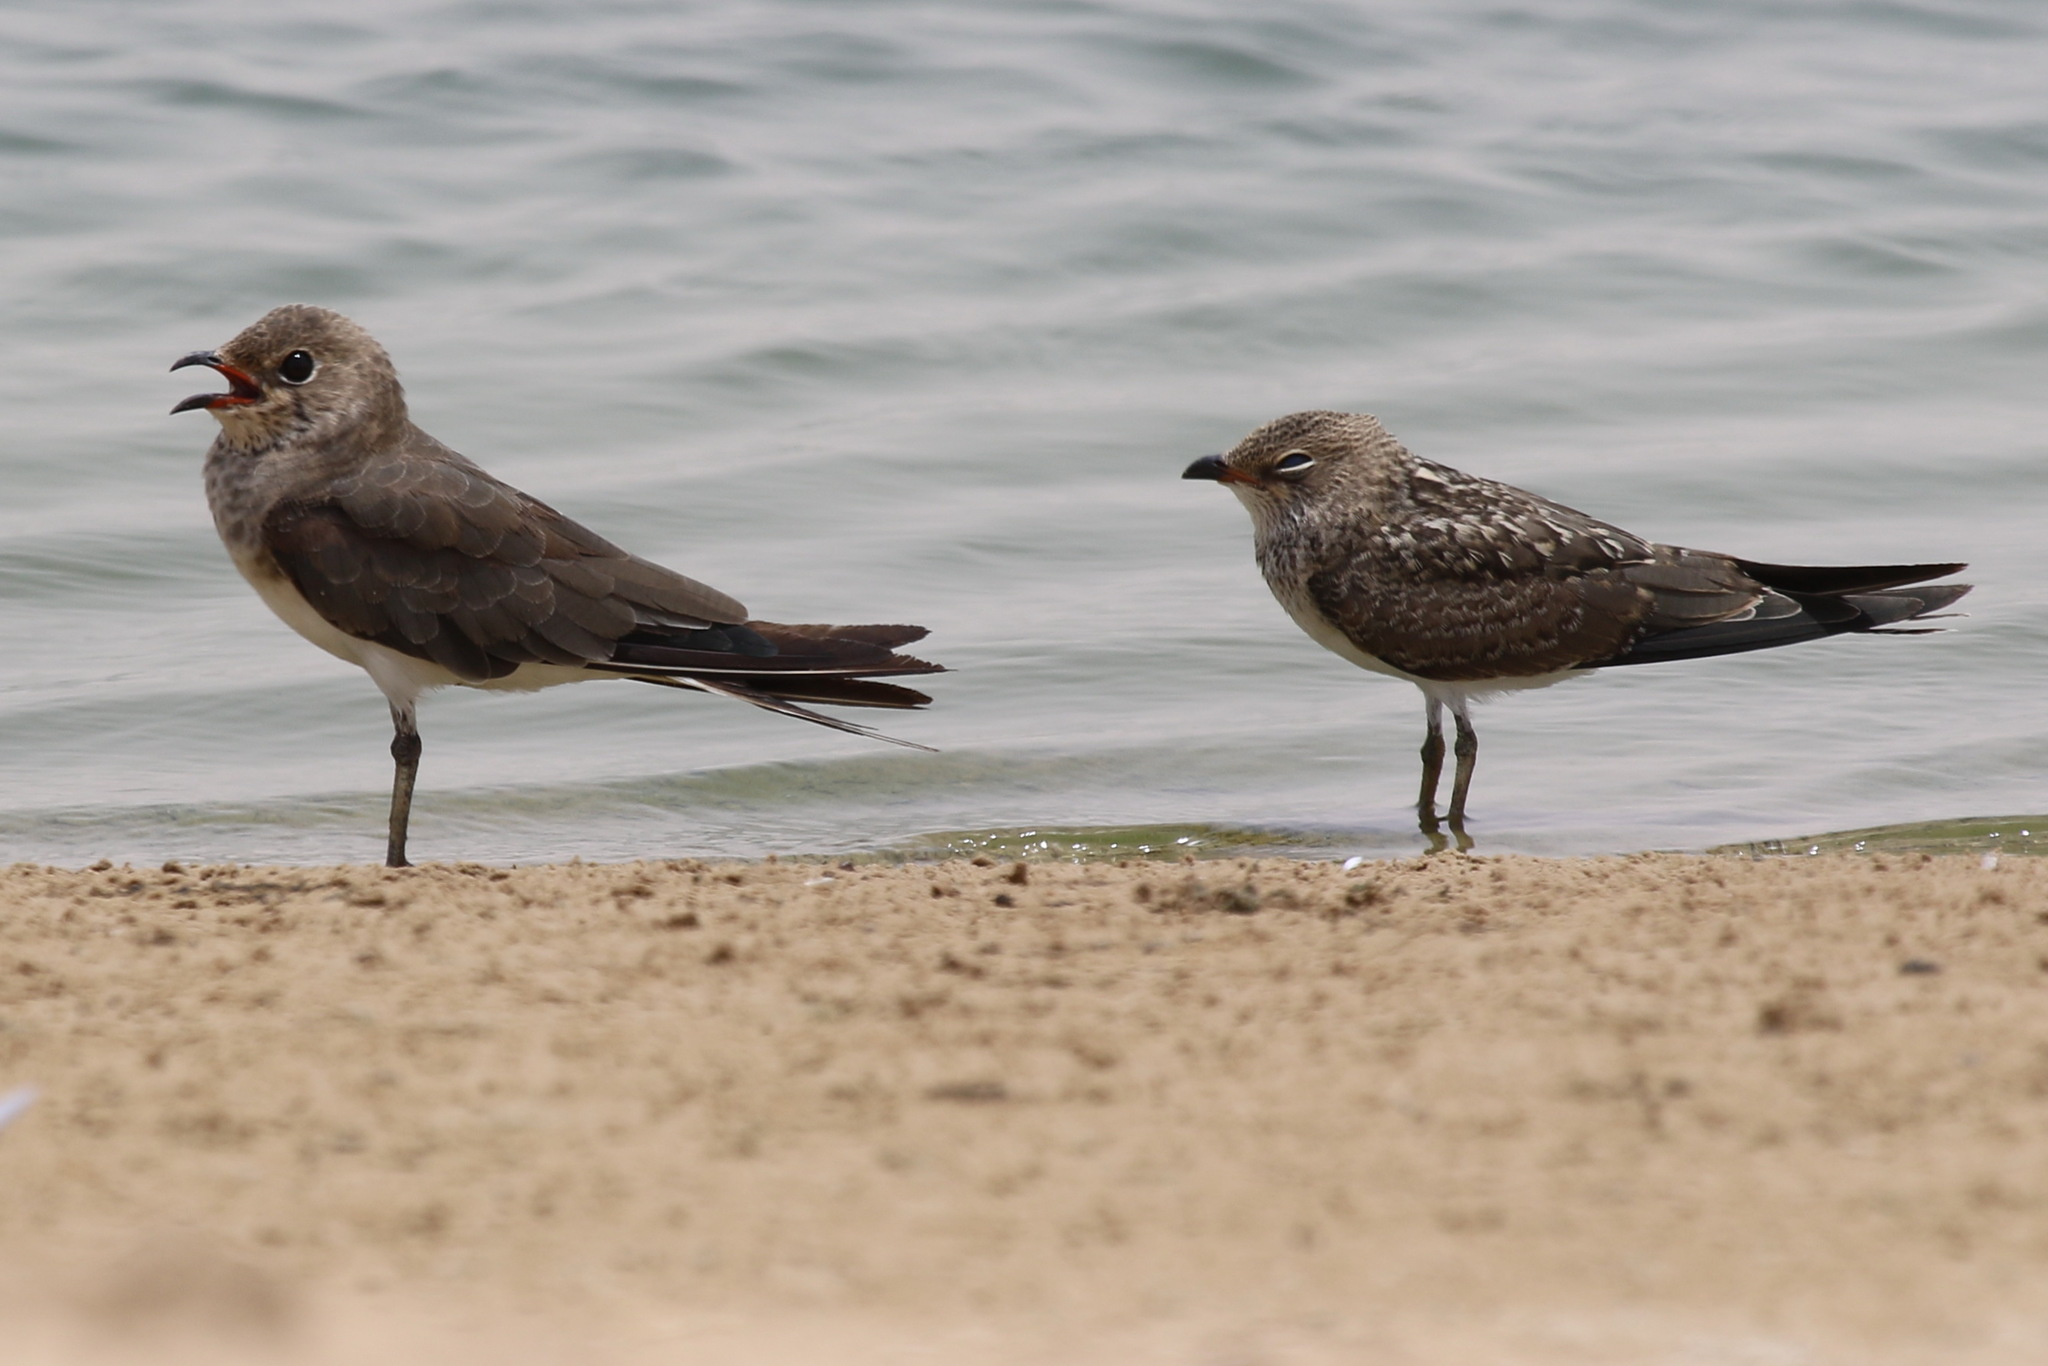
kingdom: Animalia
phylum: Chordata
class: Aves
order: Charadriiformes
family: Glareolidae
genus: Glareola
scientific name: Glareola pratincola
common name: Collared pratincole
